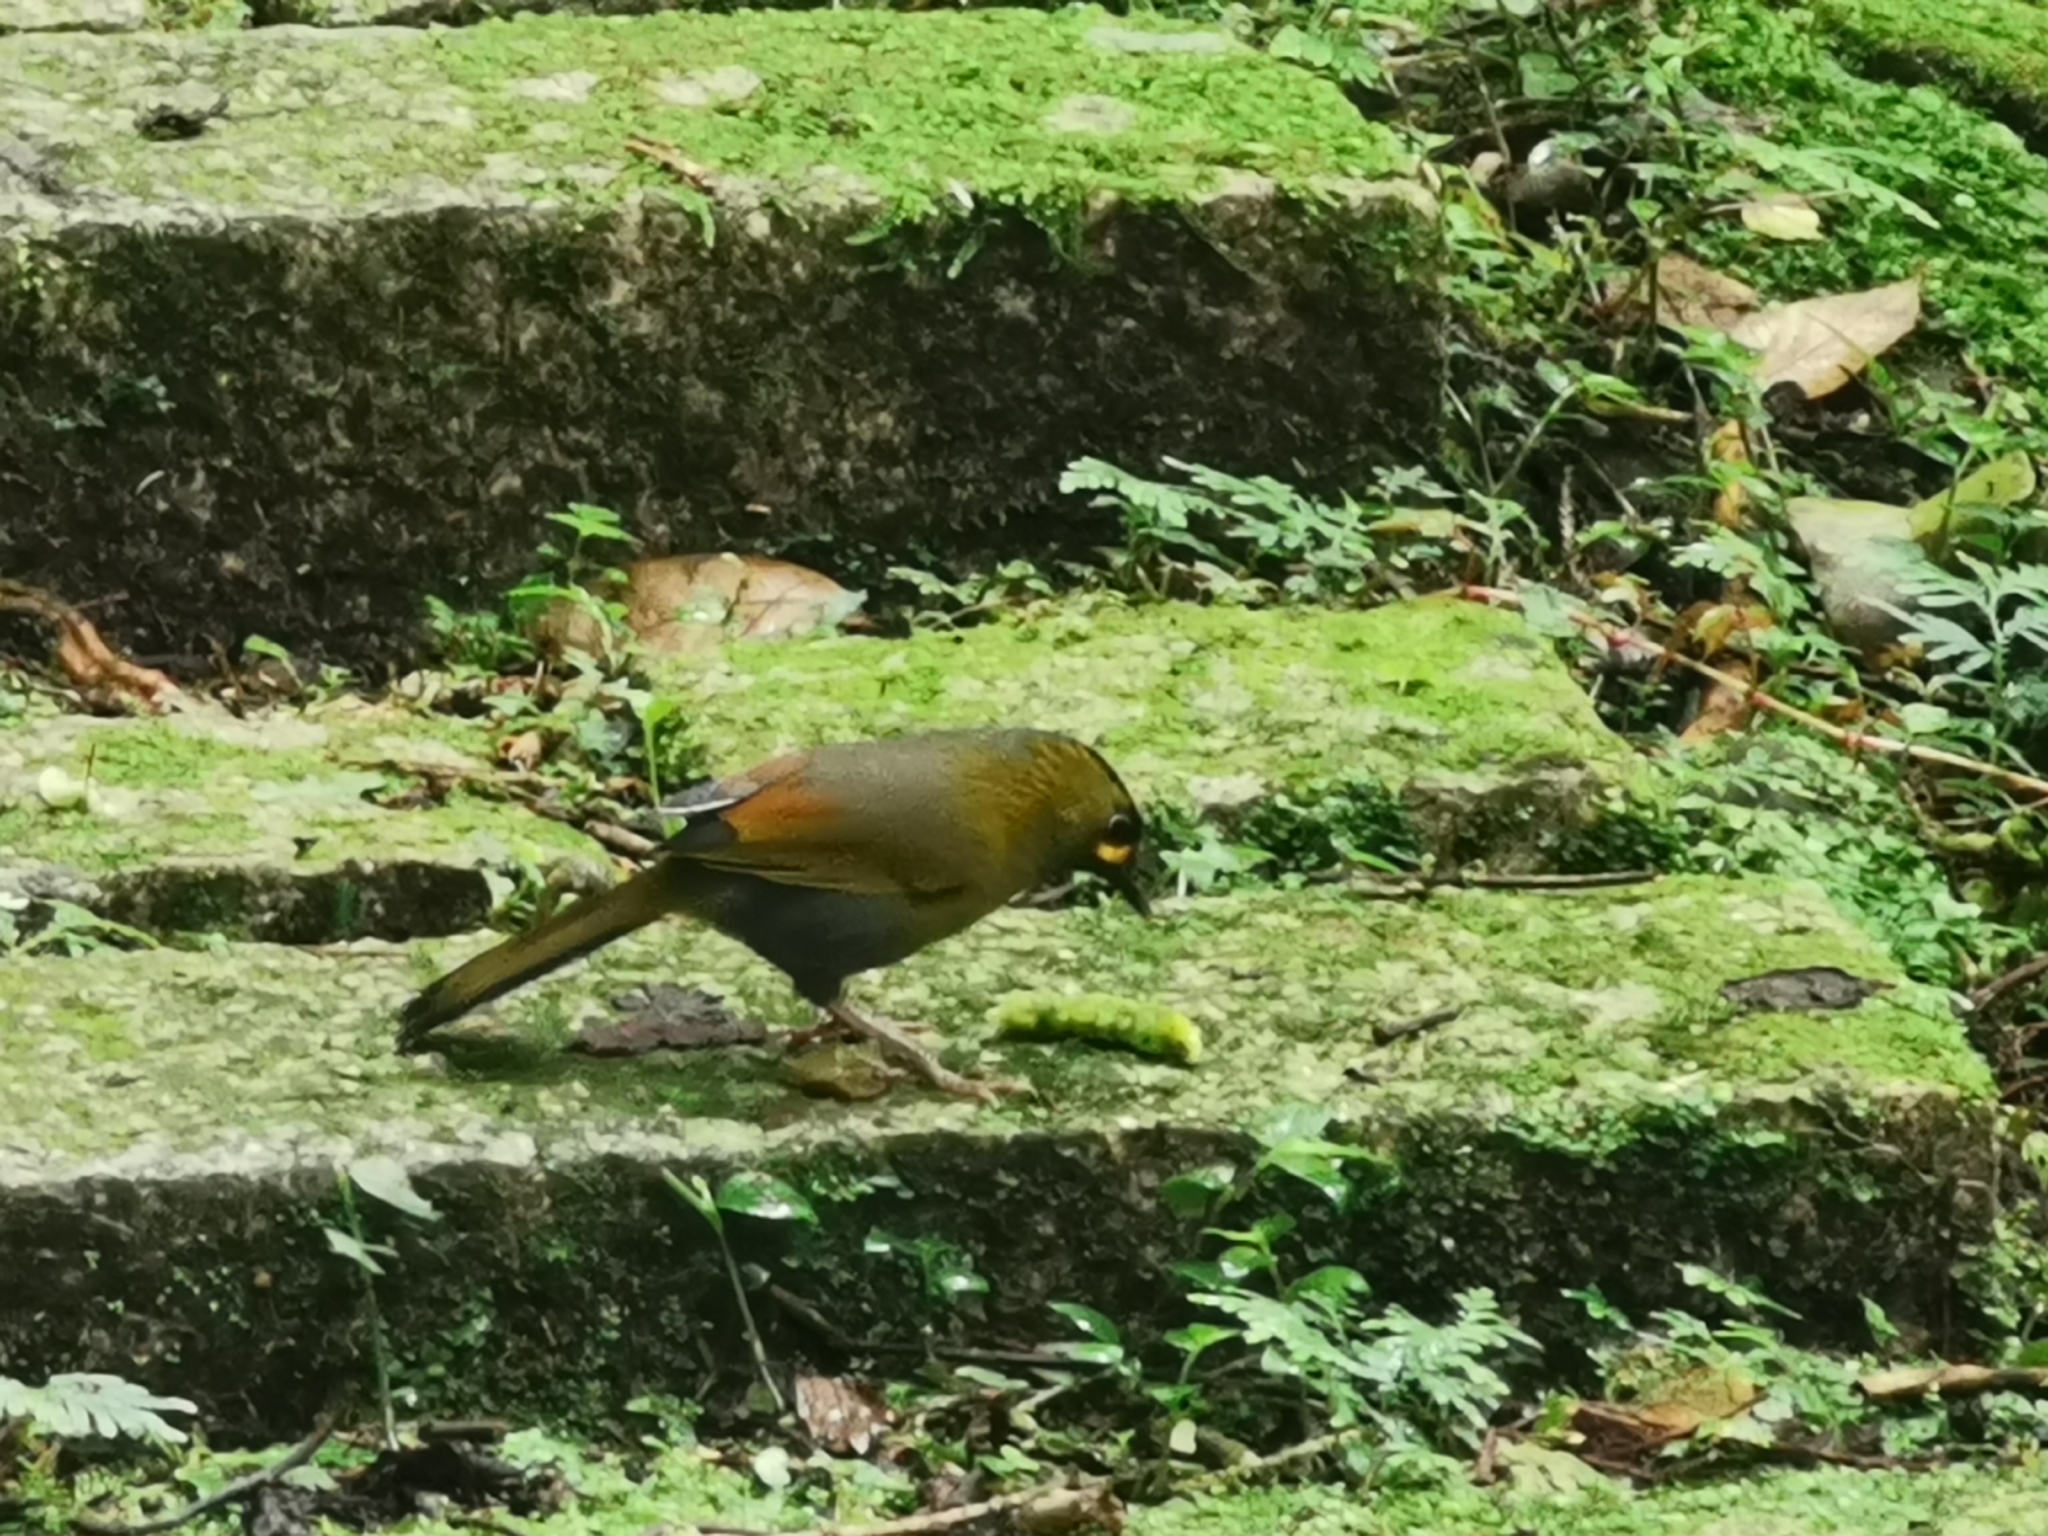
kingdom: Animalia
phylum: Chordata
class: Aves
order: Passeriformes
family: Leiothrichidae
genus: Liocichla
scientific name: Liocichla steerii
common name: Steere's liocichla
